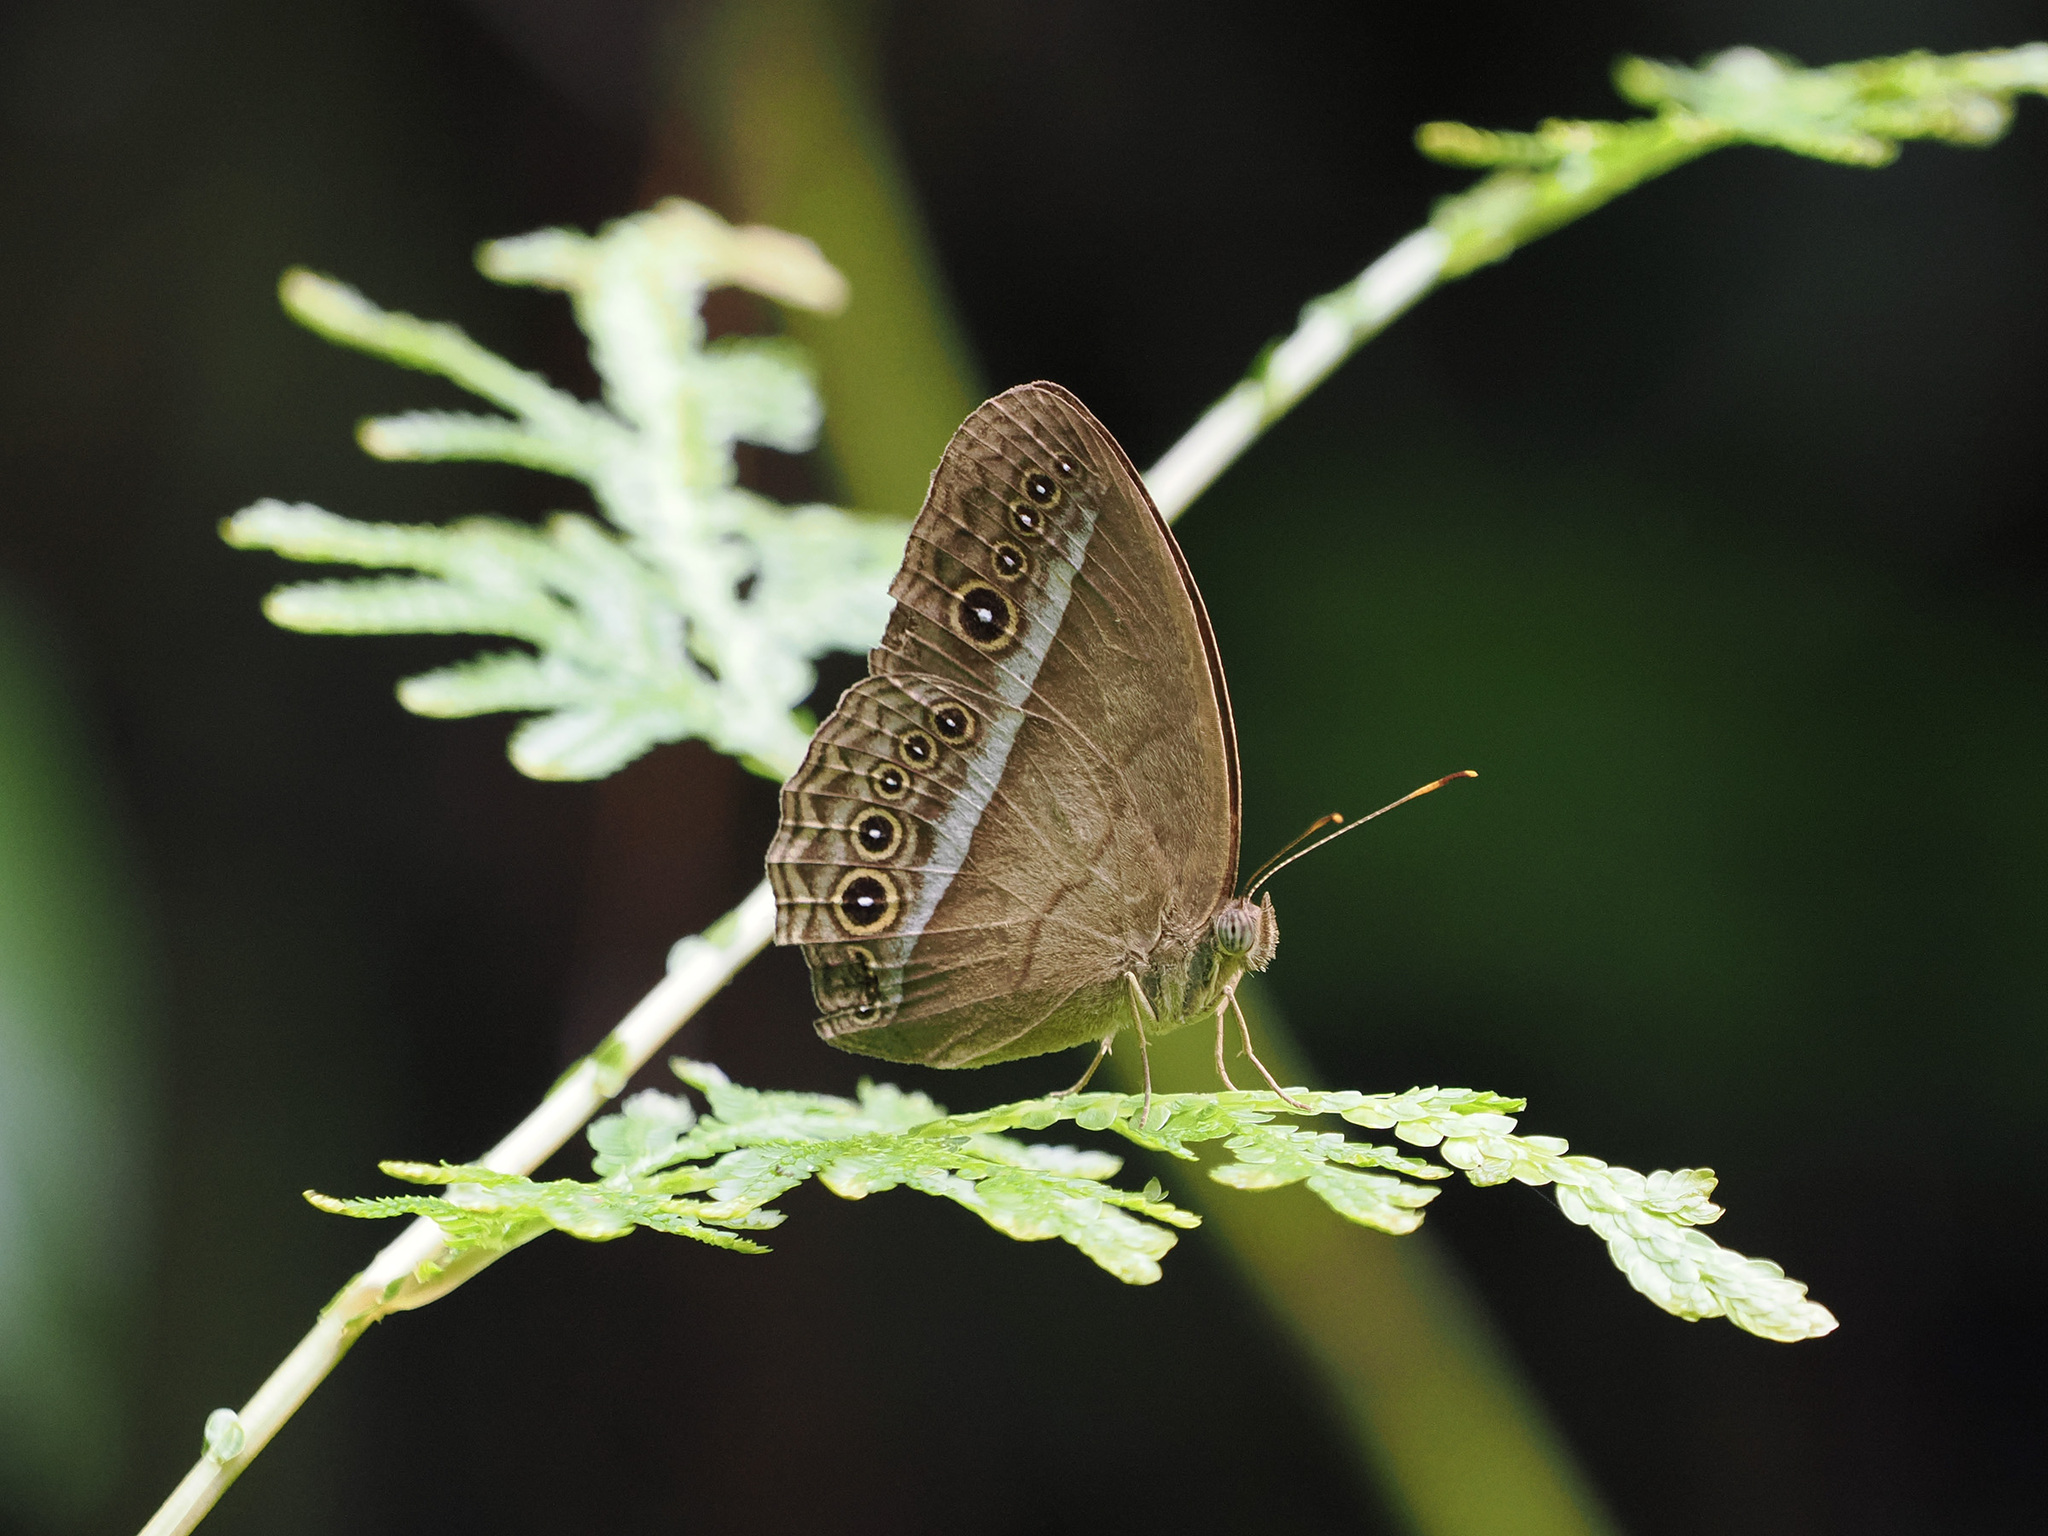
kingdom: Animalia
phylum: Arthropoda
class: Insecta
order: Lepidoptera
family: Nymphalidae
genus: Mycalesis
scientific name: Mycalesis orseis
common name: Purple bushbrown
